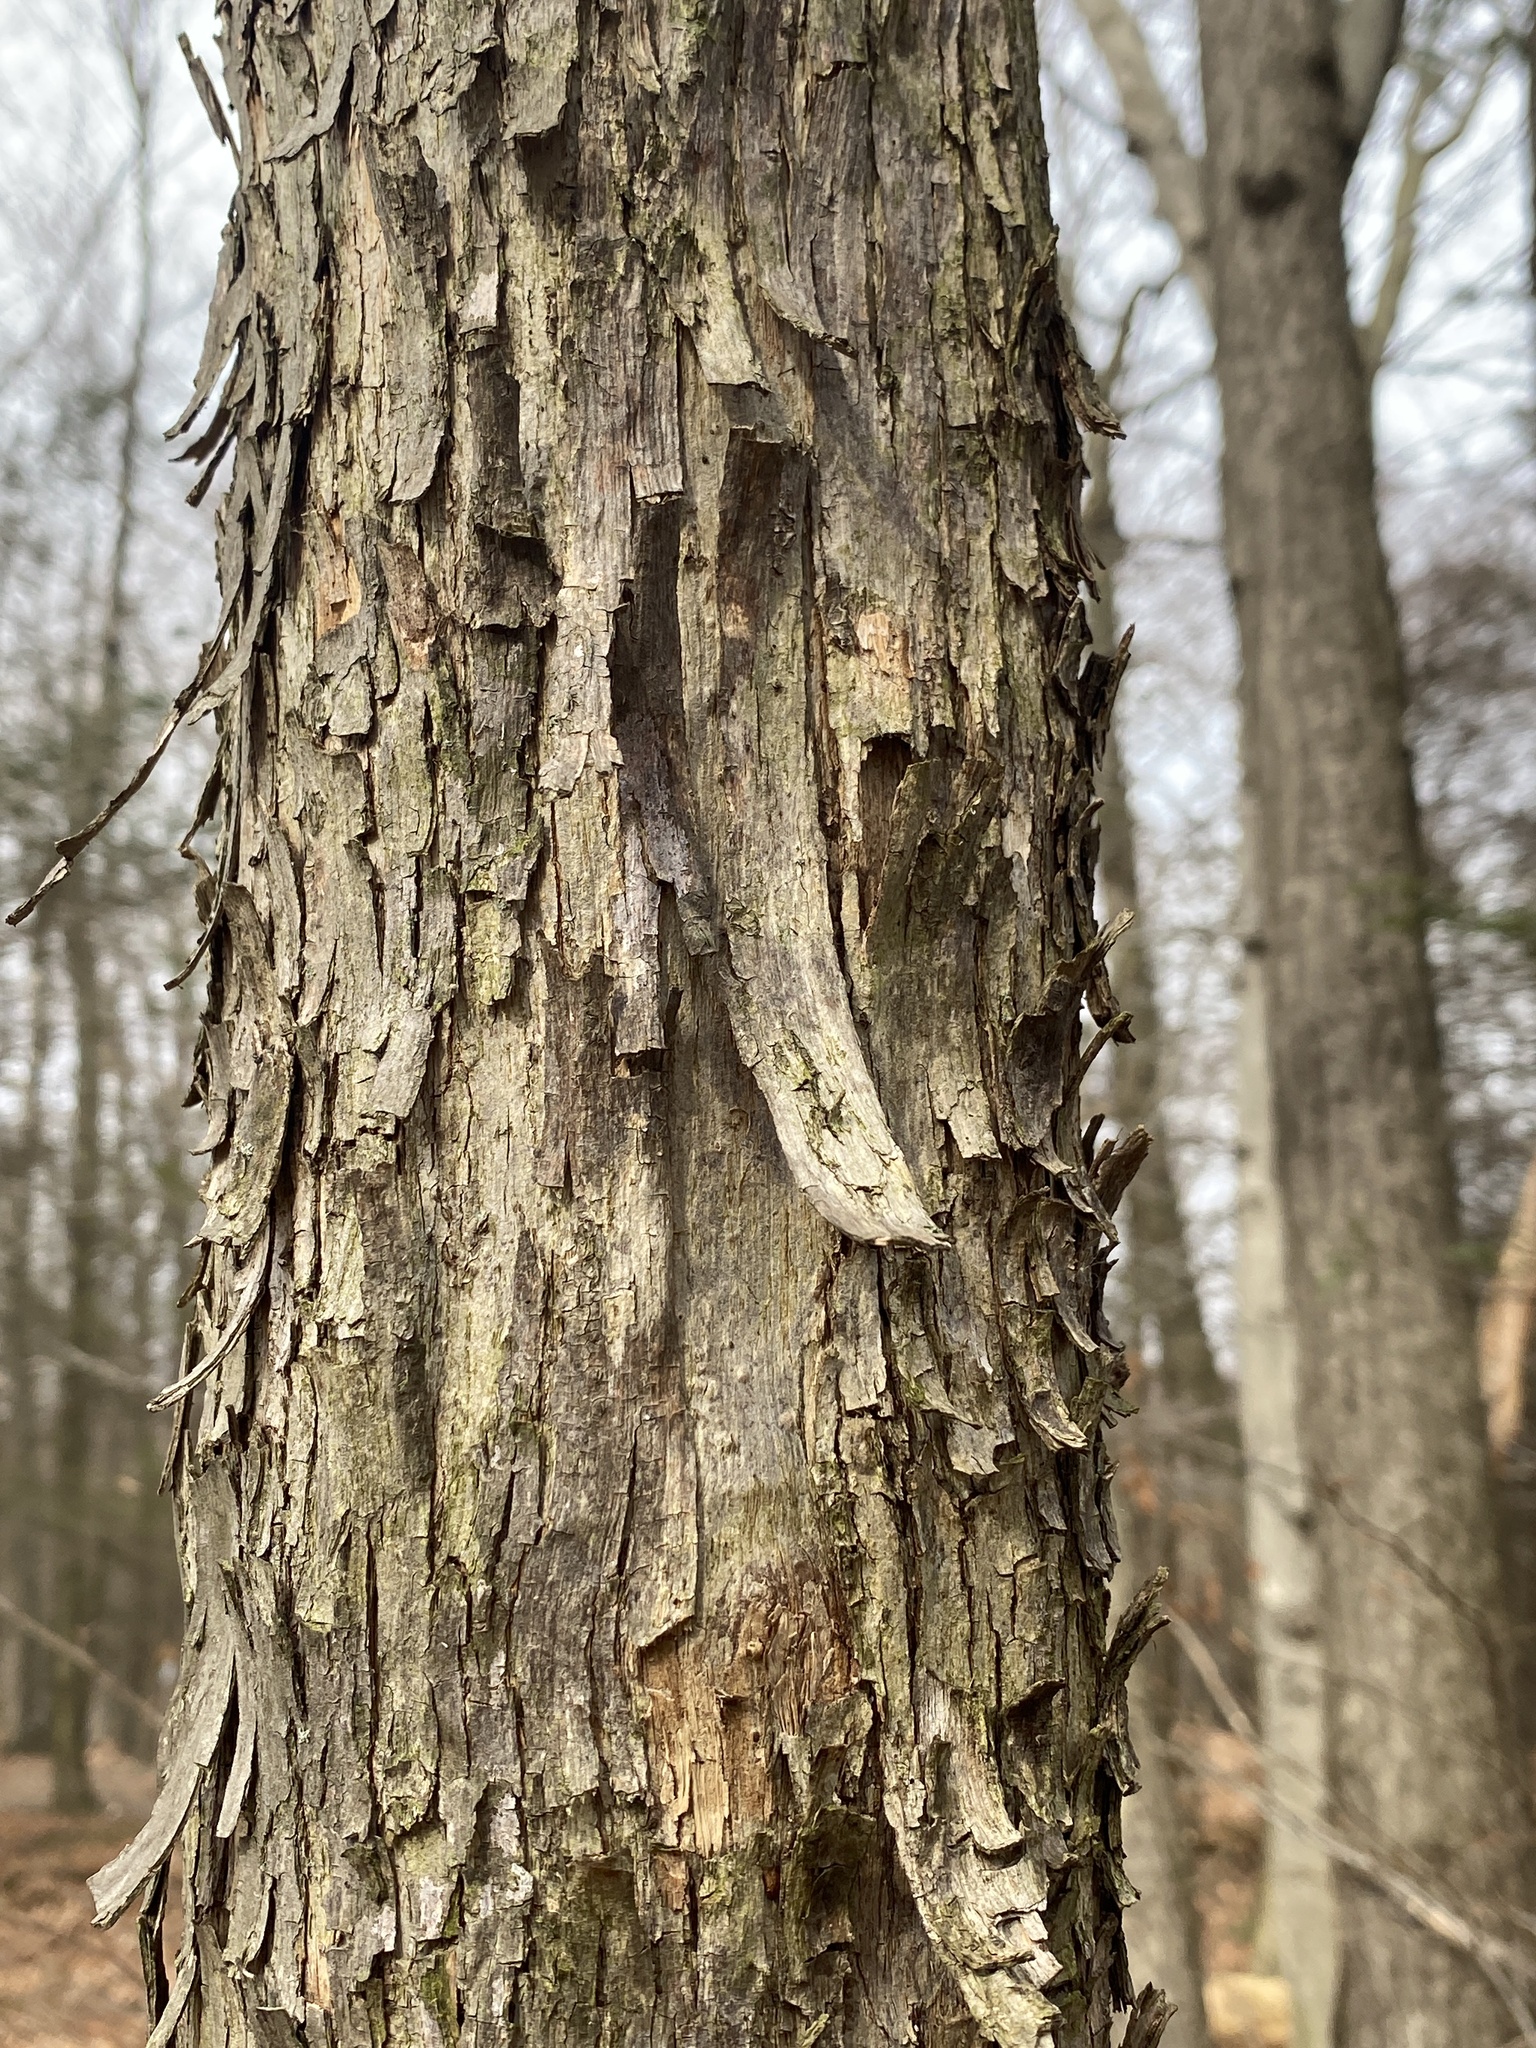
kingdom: Plantae
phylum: Tracheophyta
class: Magnoliopsida
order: Fagales
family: Betulaceae
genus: Ostrya
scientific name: Ostrya virginiana
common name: Ironwood
